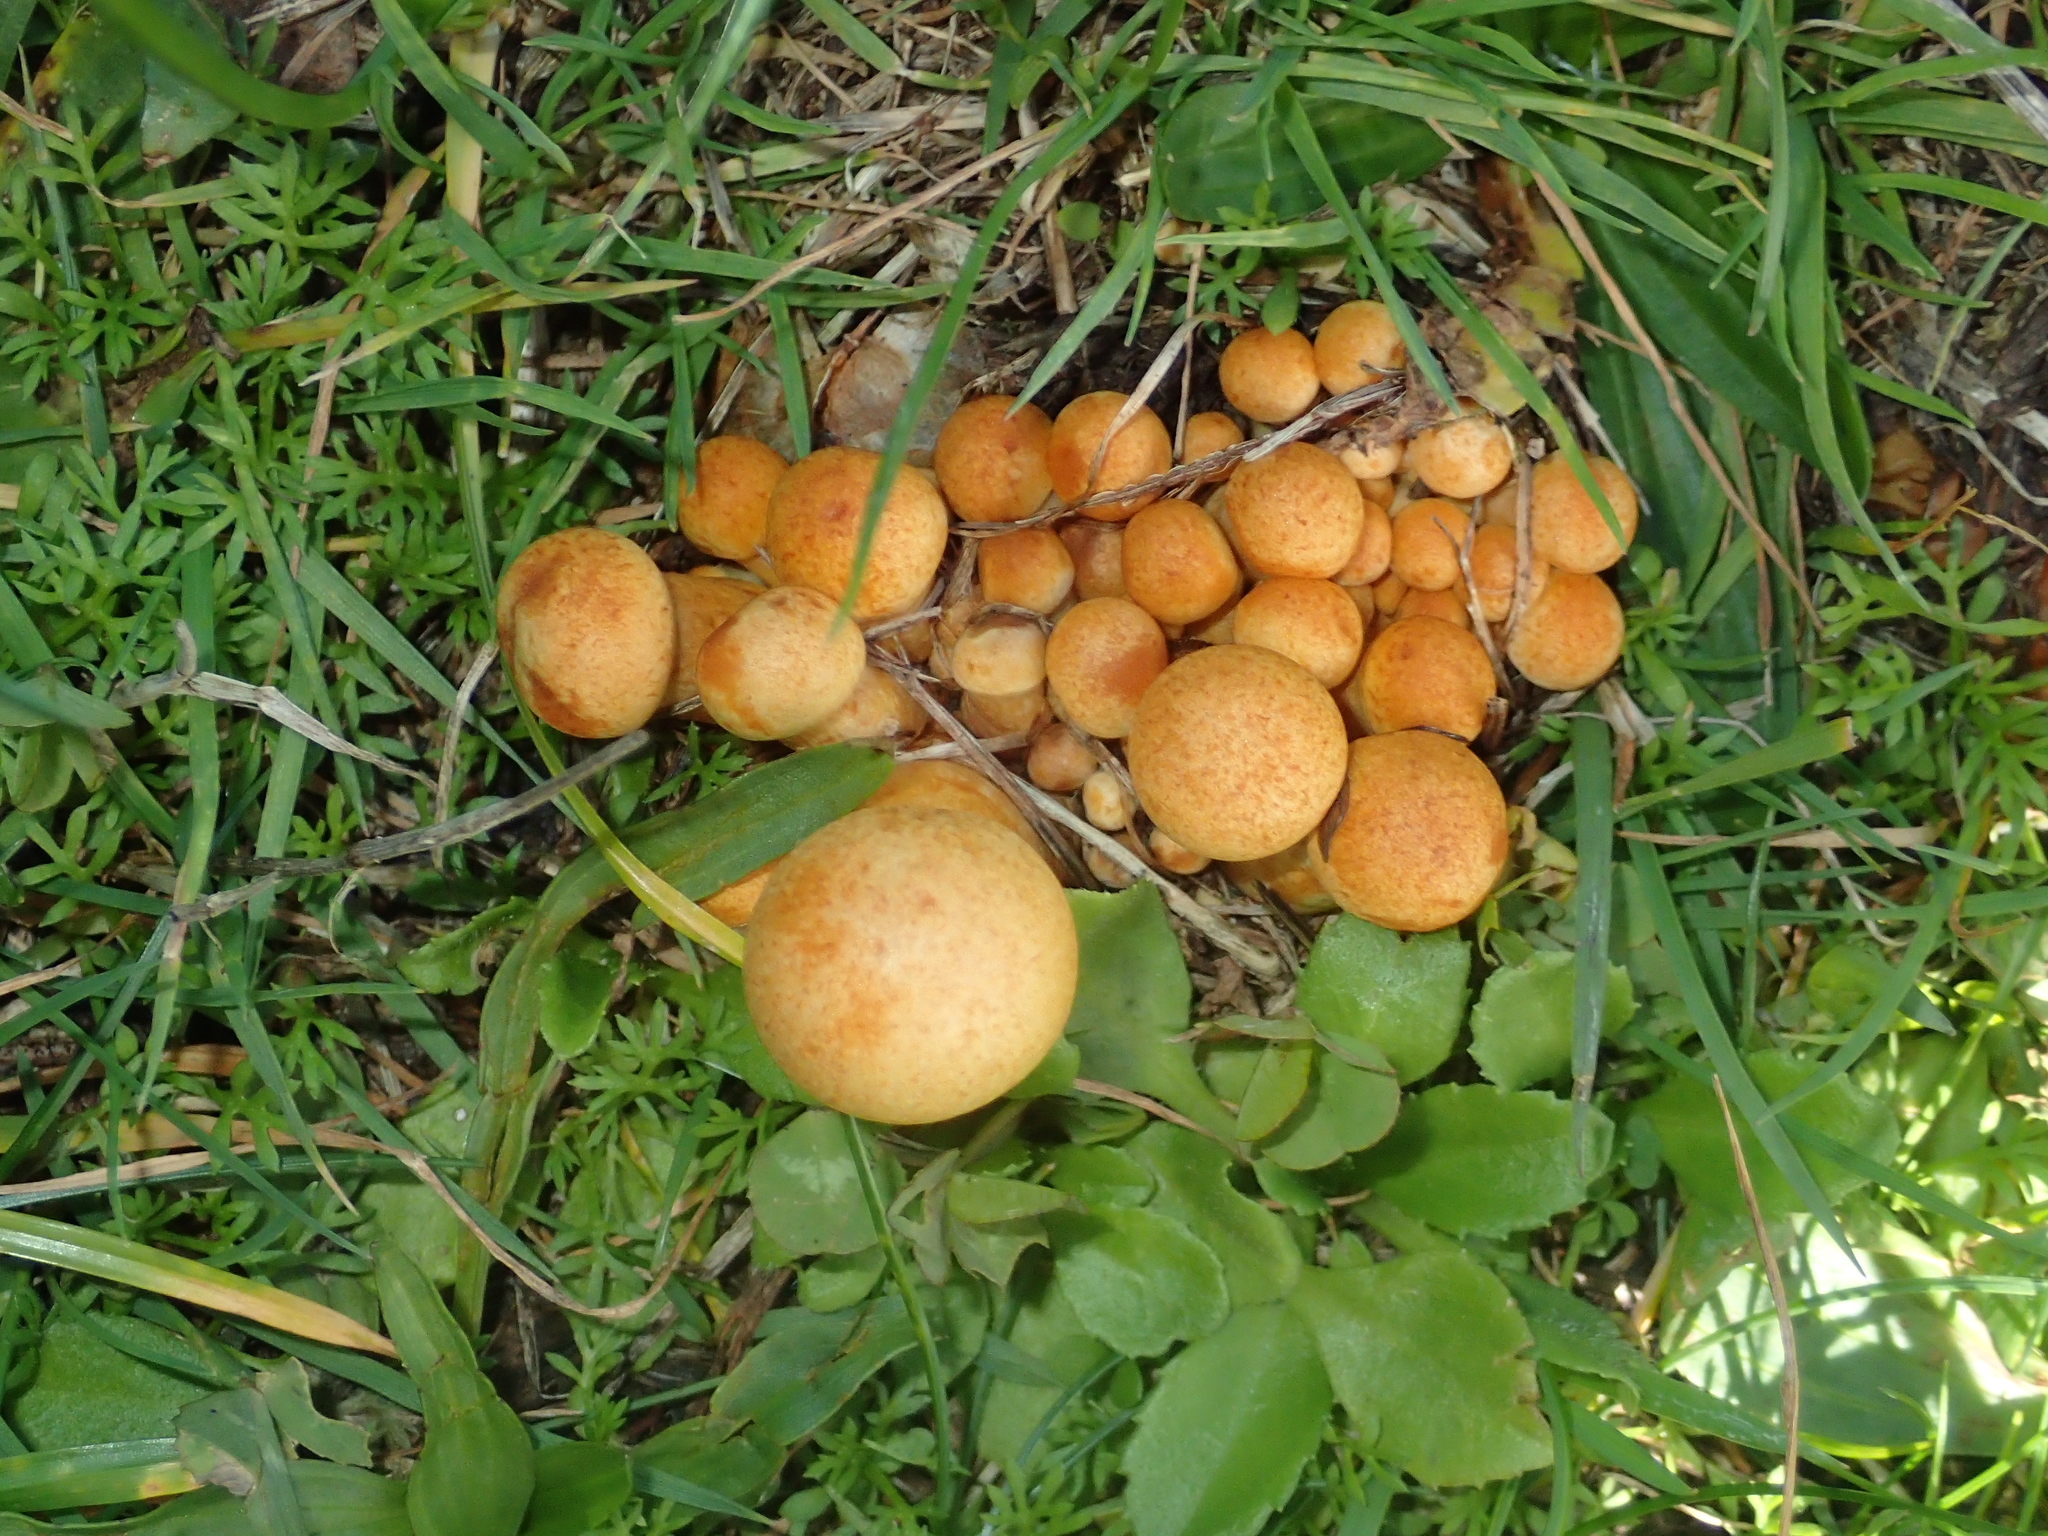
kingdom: Fungi
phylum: Basidiomycota
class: Agaricomycetes
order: Agaricales
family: Hymenogastraceae
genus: Gymnopilus
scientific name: Gymnopilus junonius
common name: Spectacular rustgill
